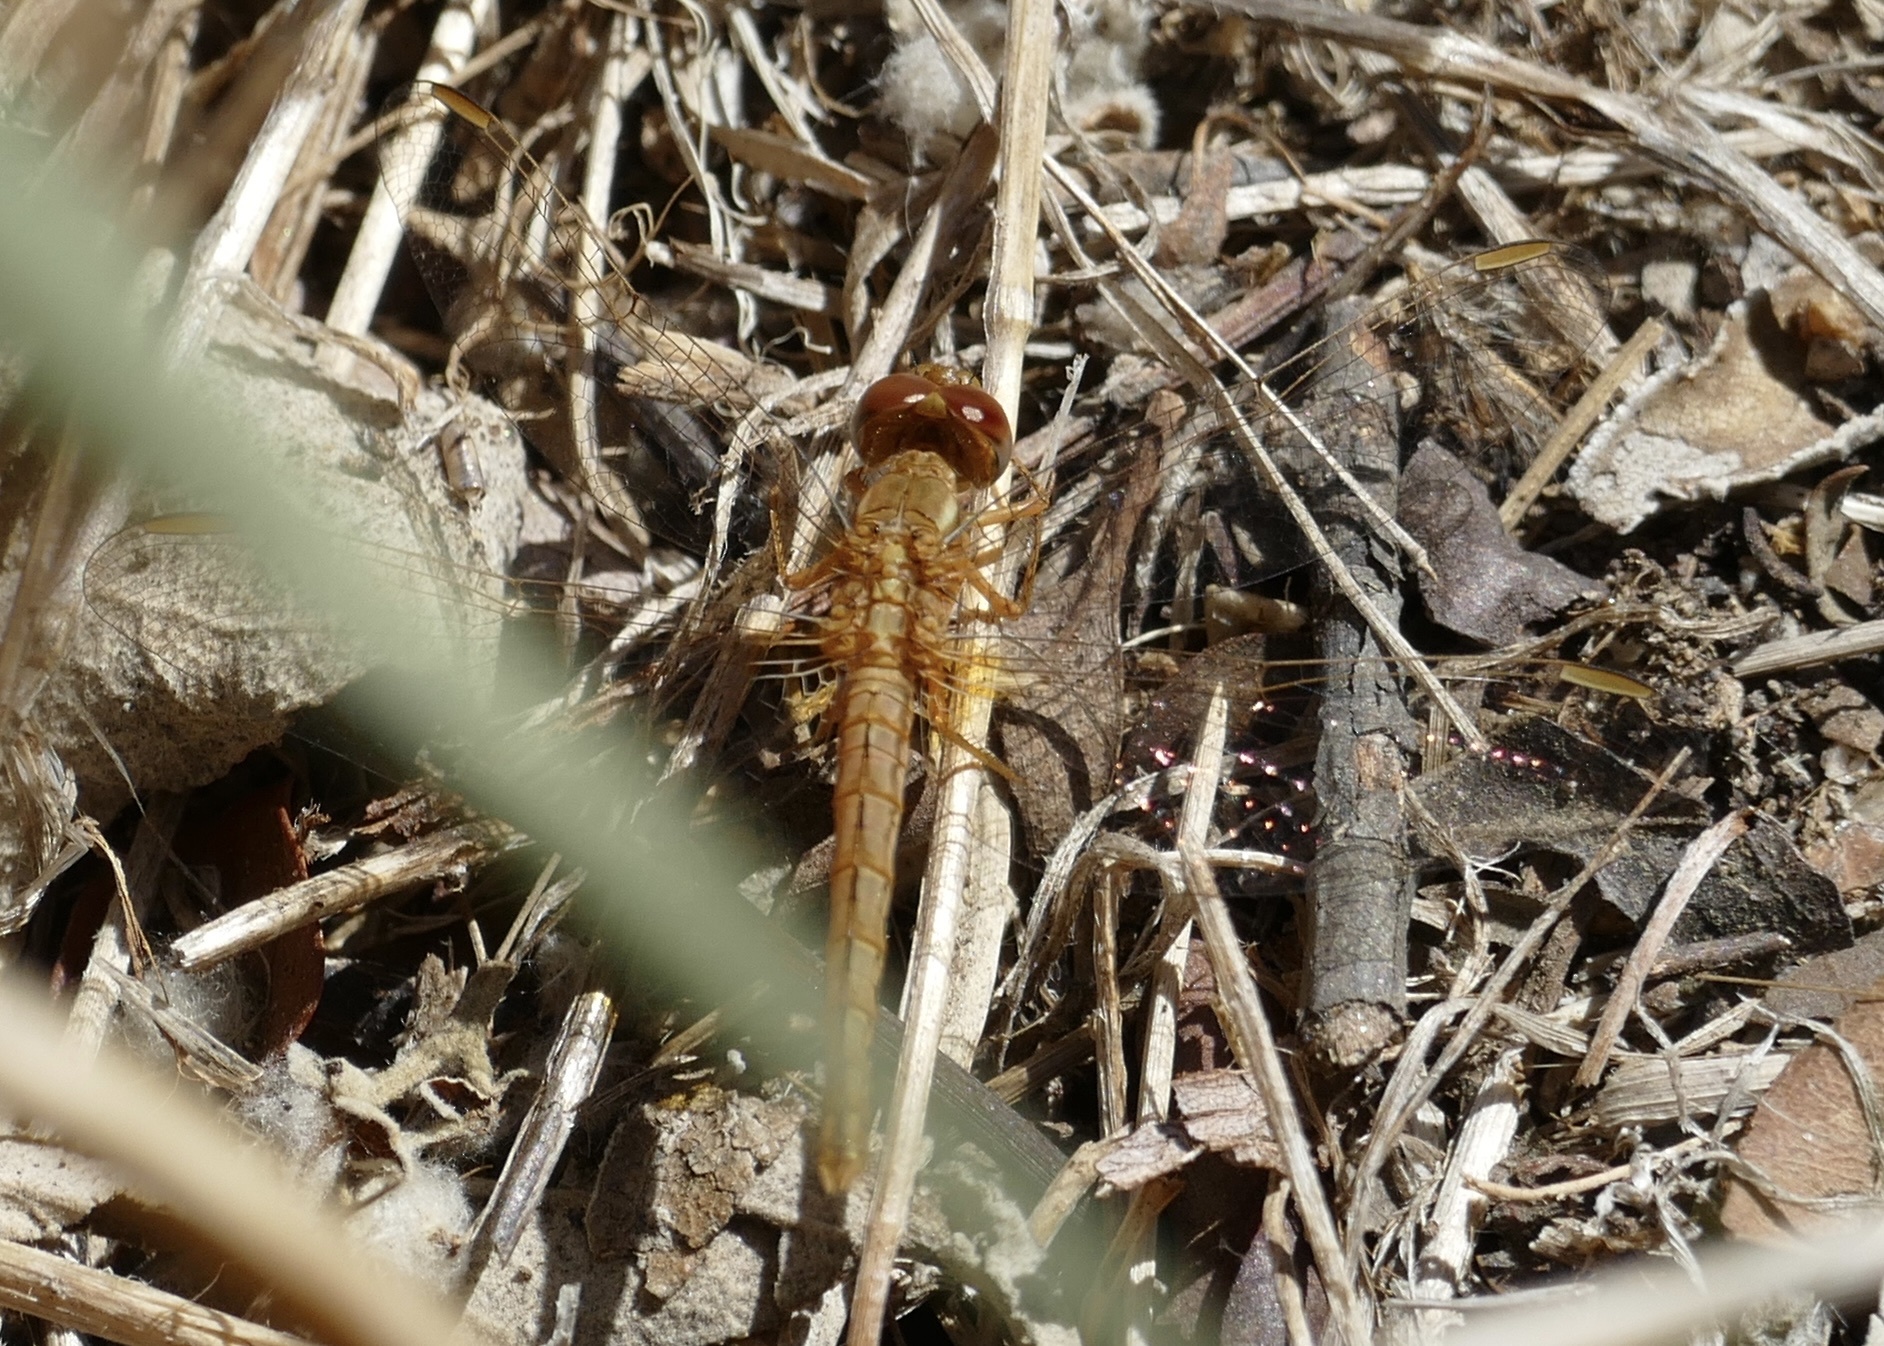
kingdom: Animalia
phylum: Arthropoda
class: Insecta
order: Odonata
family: Libellulidae
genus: Crocothemis
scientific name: Crocothemis sanguinolenta
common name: Little scarlet
